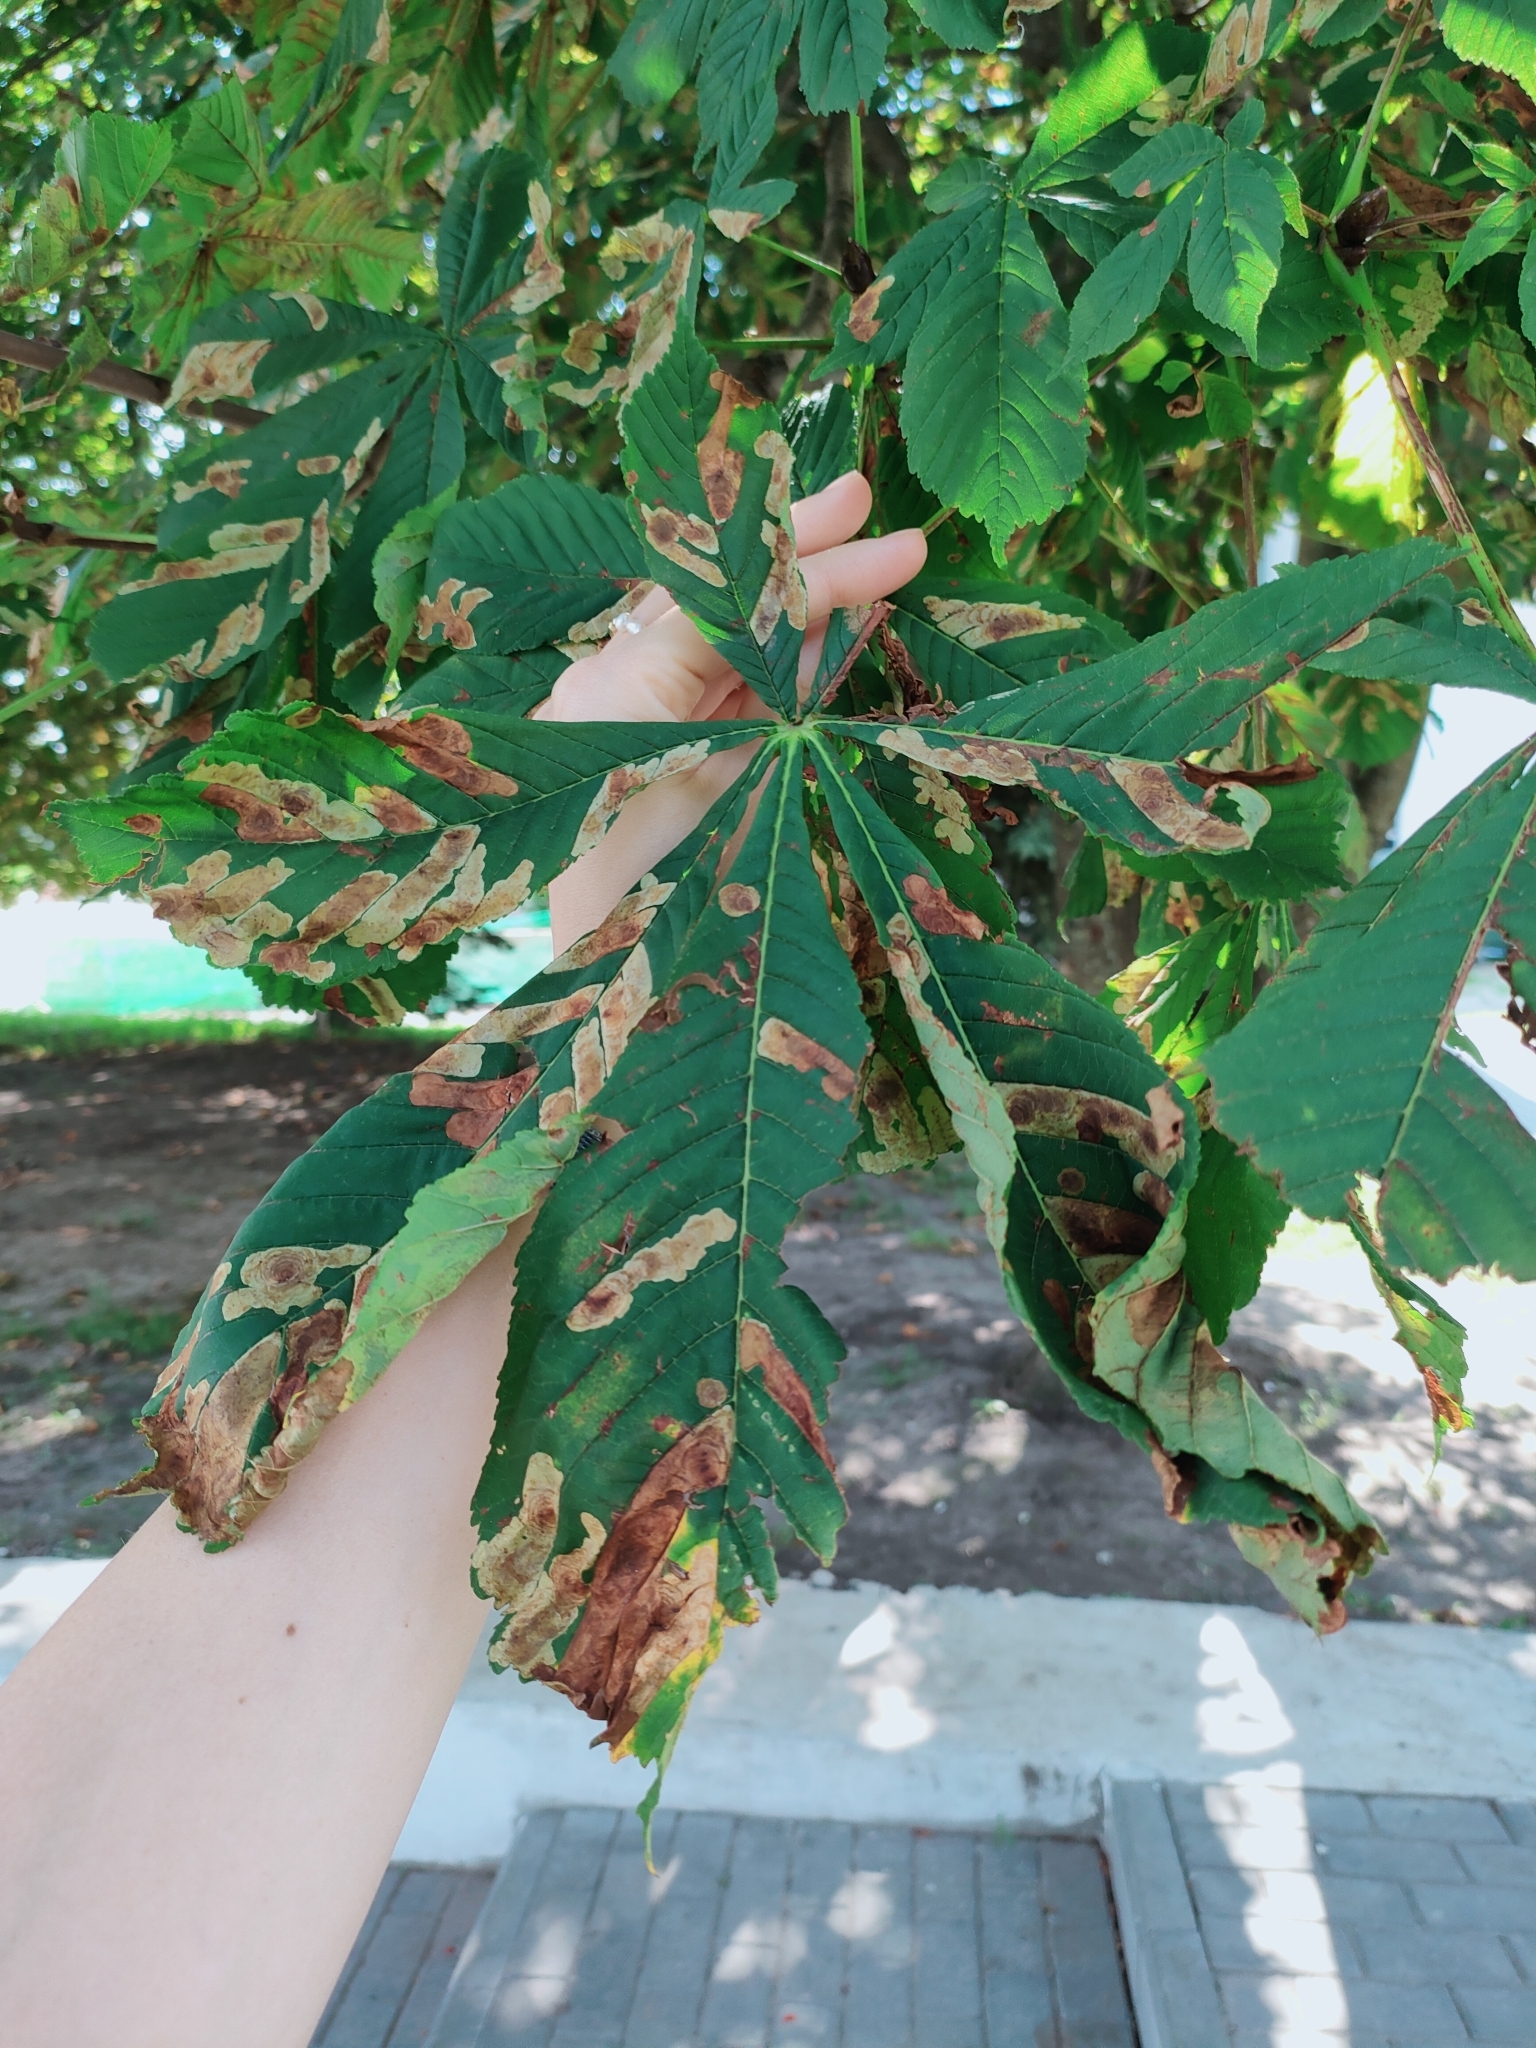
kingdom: Animalia
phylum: Arthropoda
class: Insecta
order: Lepidoptera
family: Gracillariidae
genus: Cameraria
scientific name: Cameraria ohridella
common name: Horse-chestnut leaf-miner
